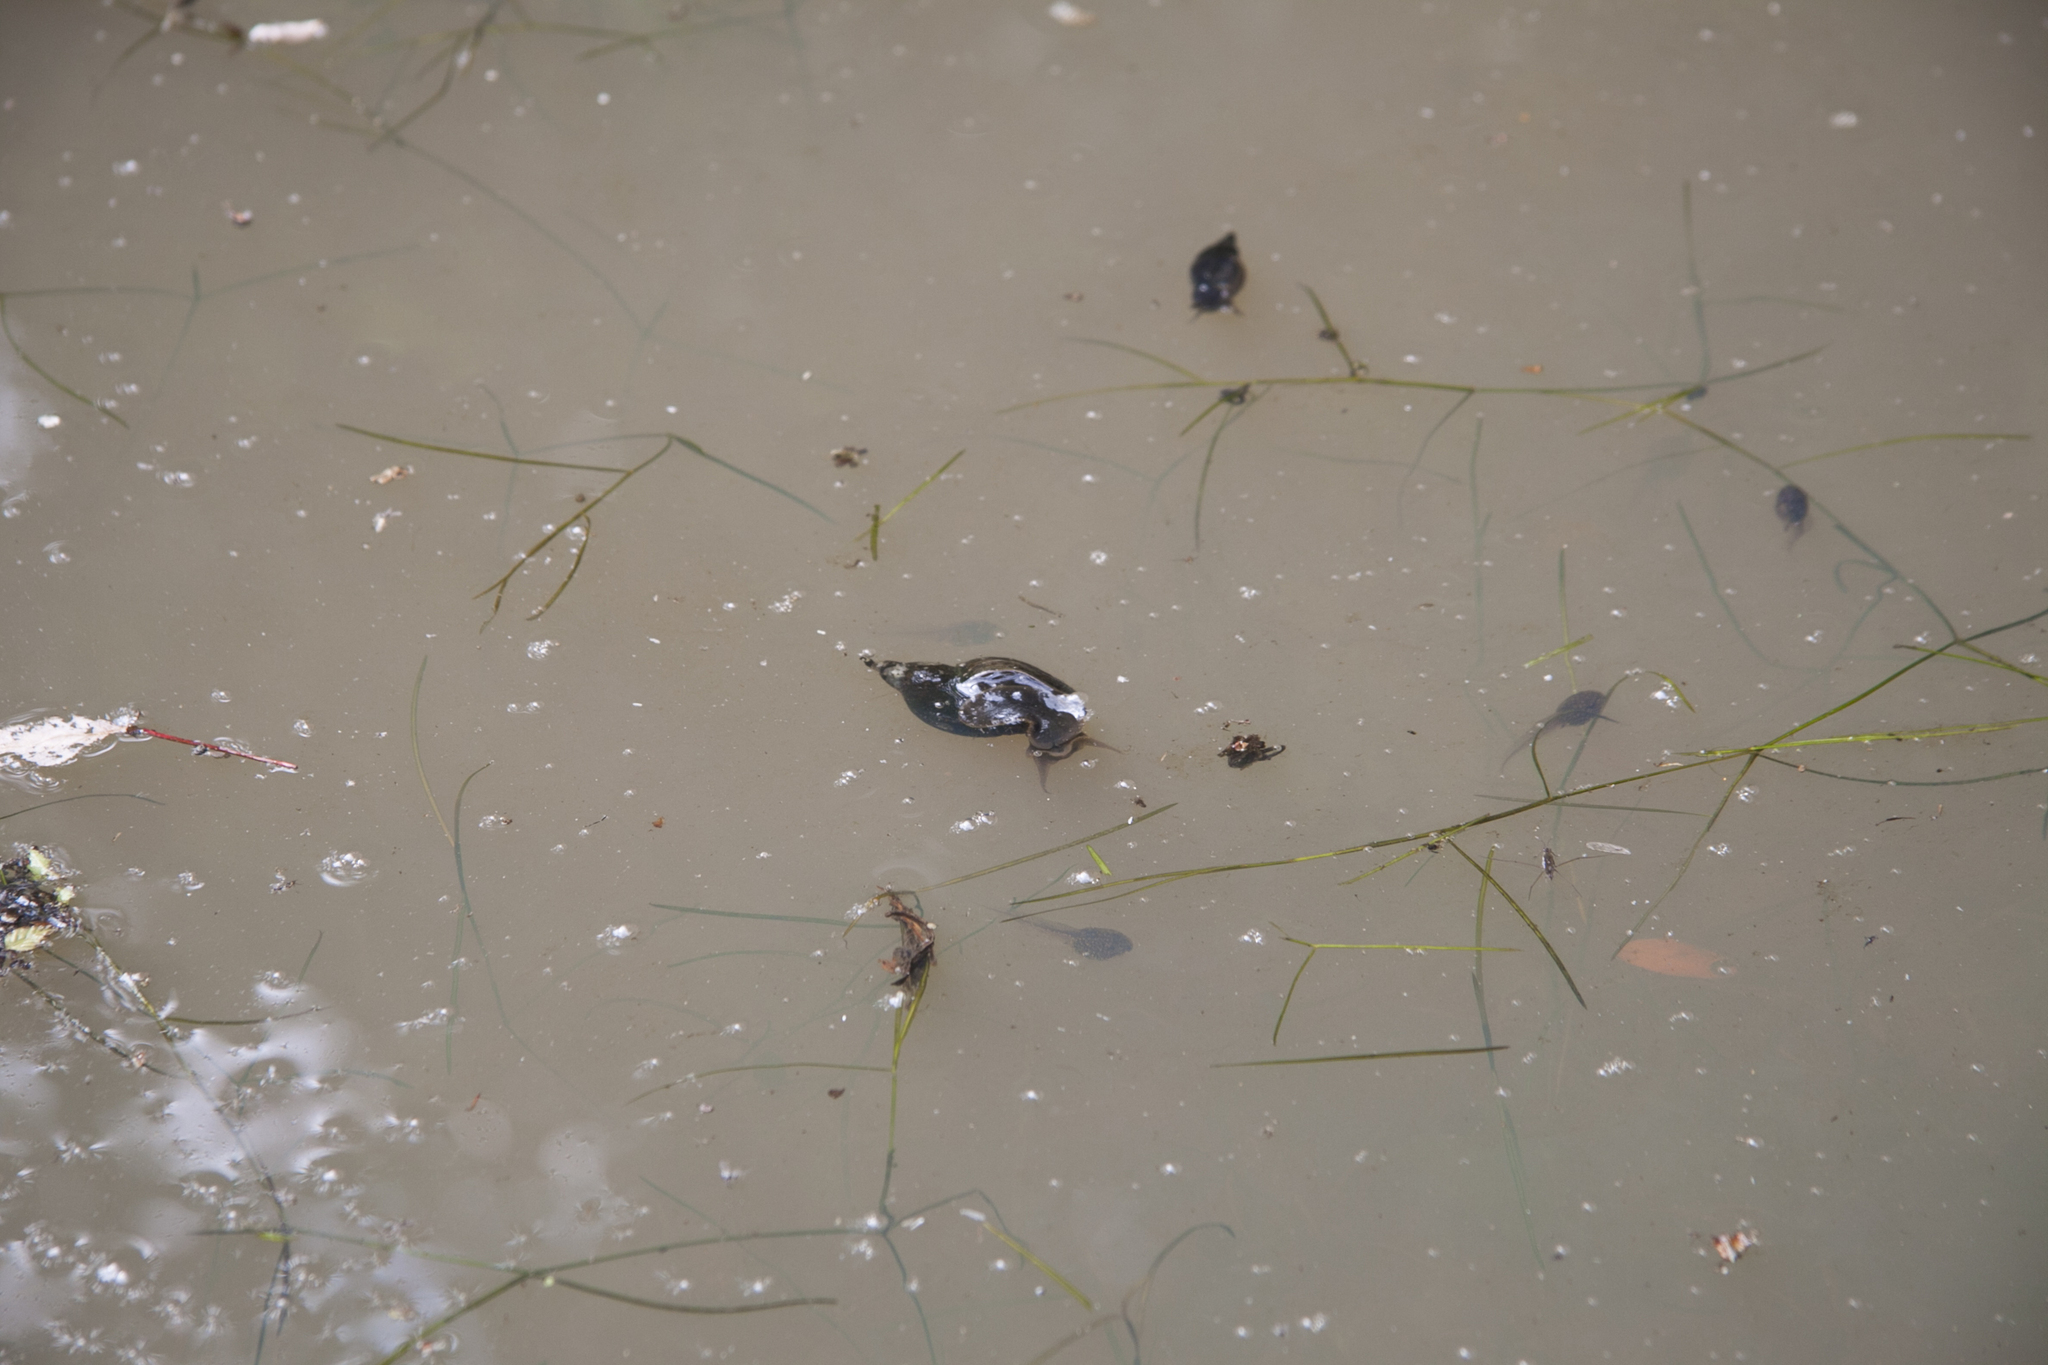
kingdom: Animalia
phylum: Mollusca
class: Gastropoda
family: Lymnaeidae
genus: Lymnaea
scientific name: Lymnaea stagnalis
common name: Great pond snail
